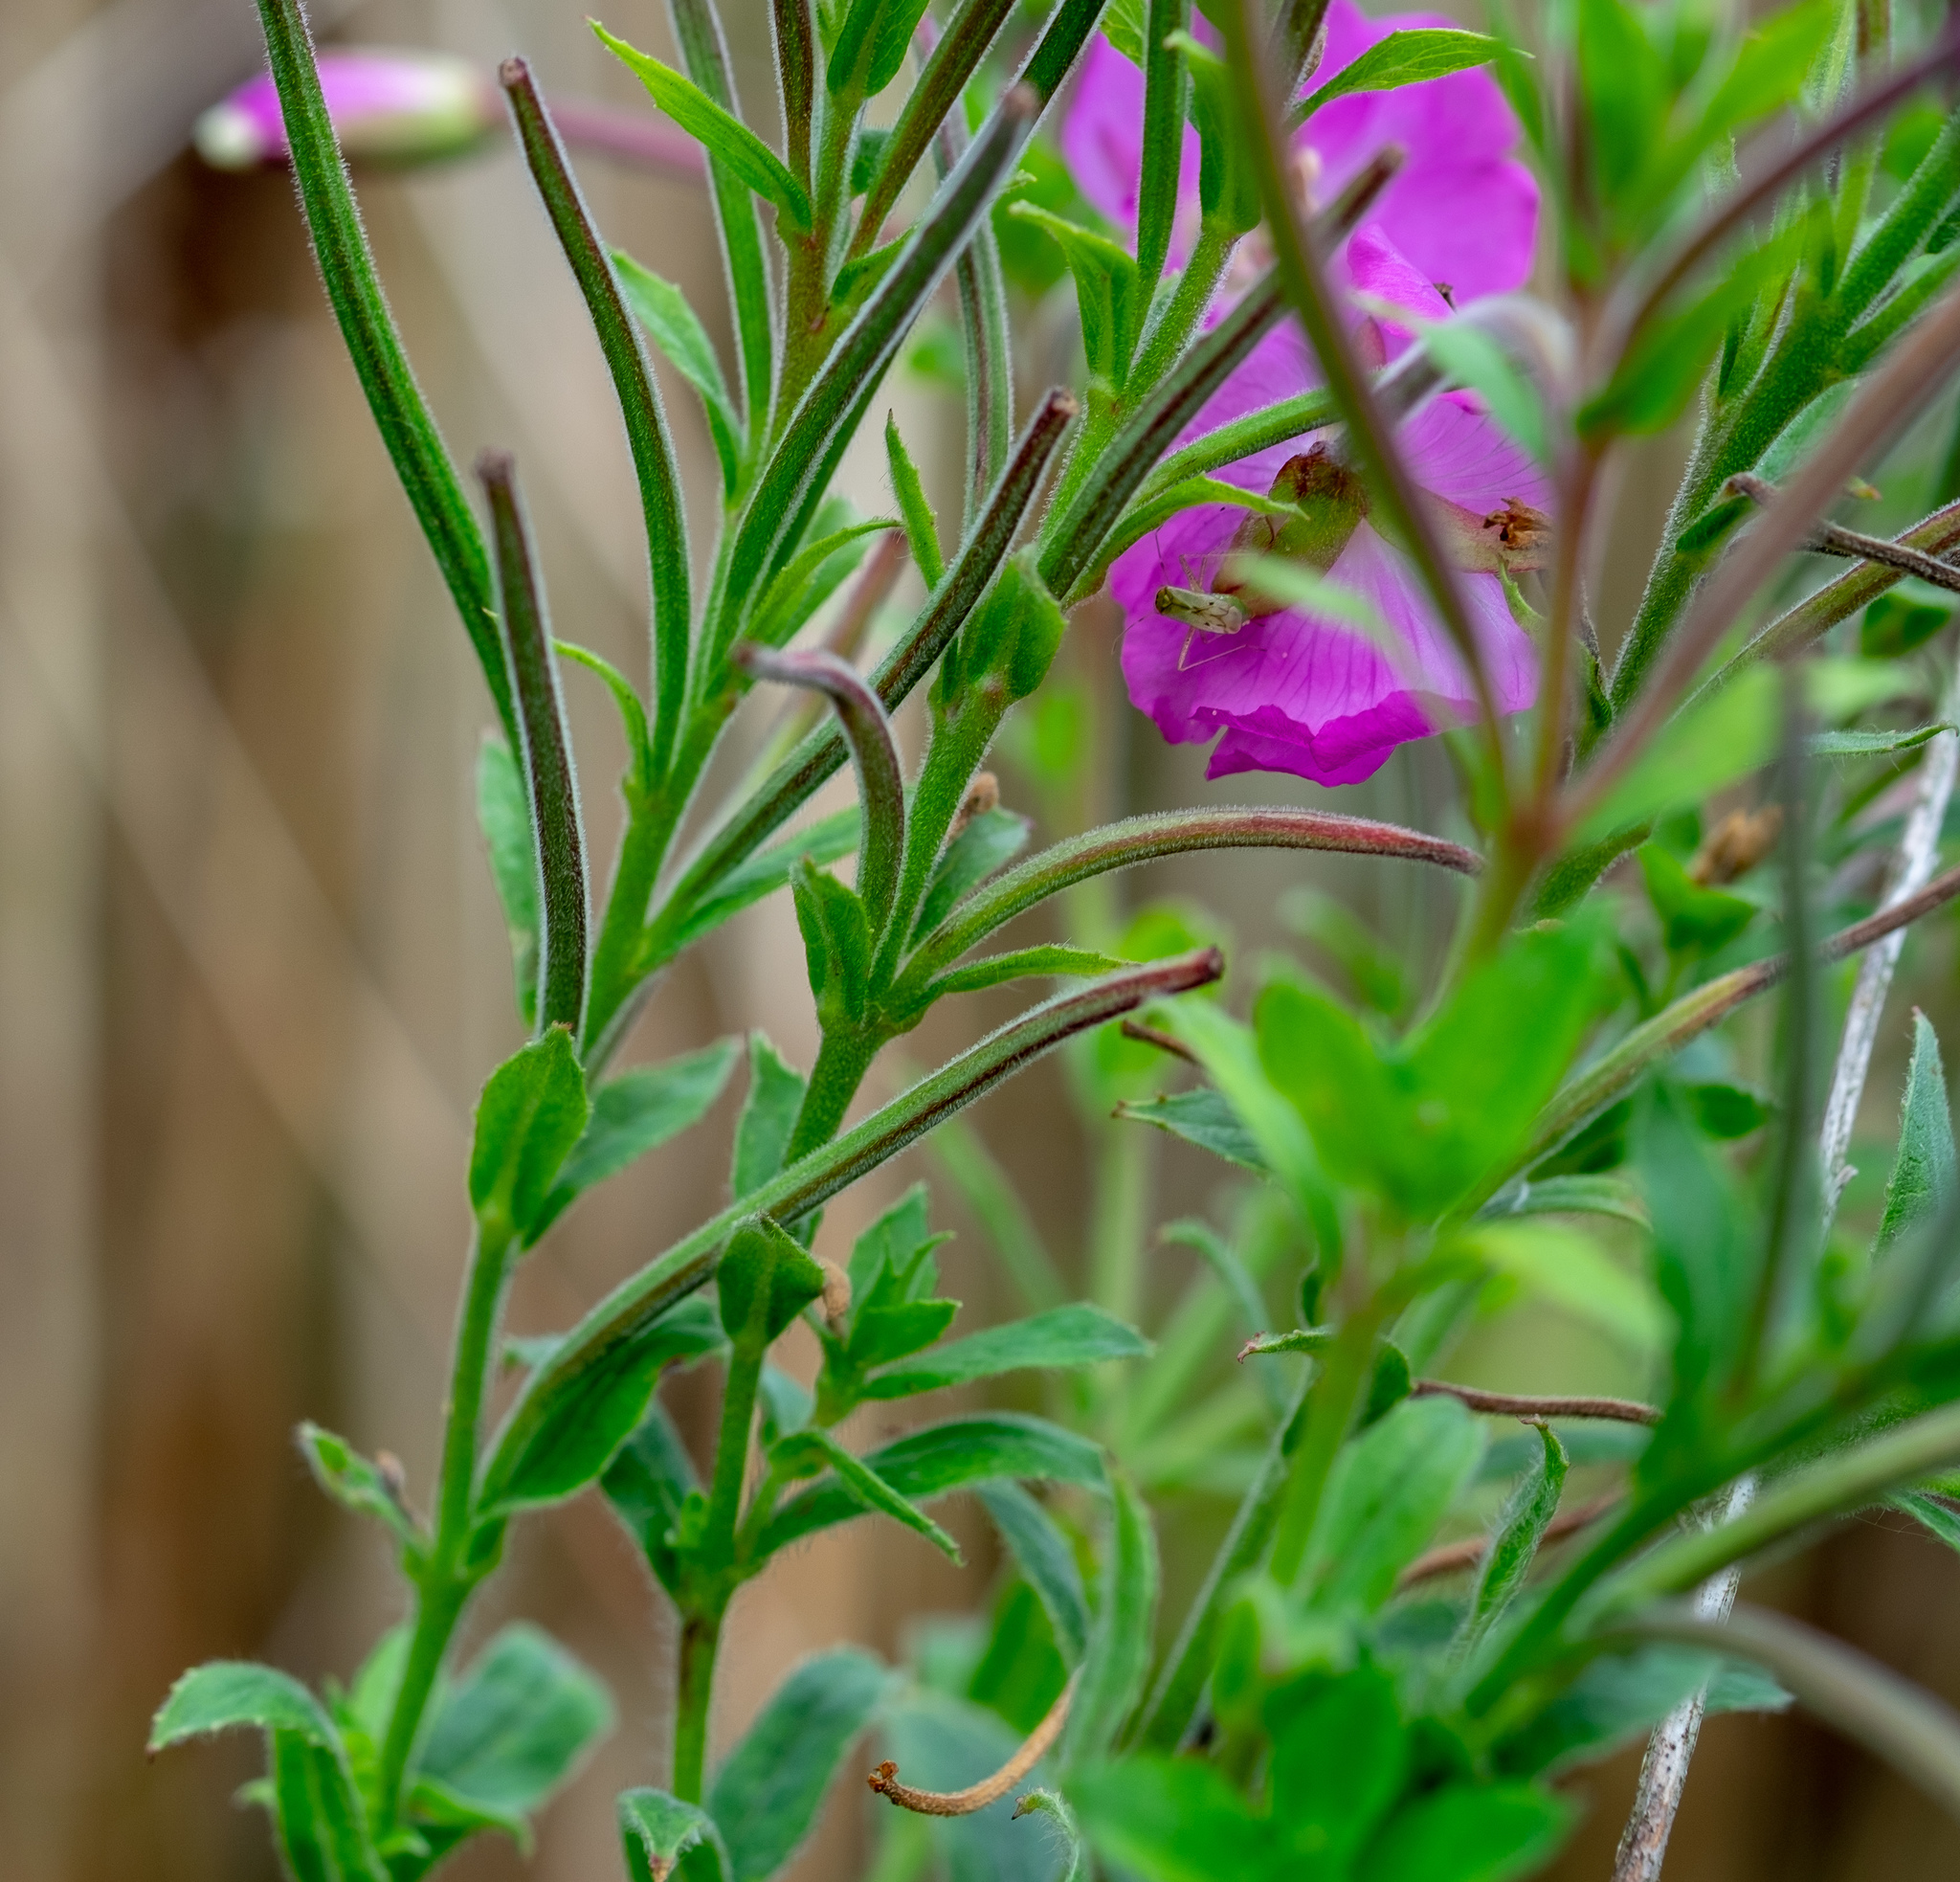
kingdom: Plantae
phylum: Tracheophyta
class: Magnoliopsida
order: Myrtales
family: Onagraceae
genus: Epilobium
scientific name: Epilobium hirsutum
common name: Great willowherb
